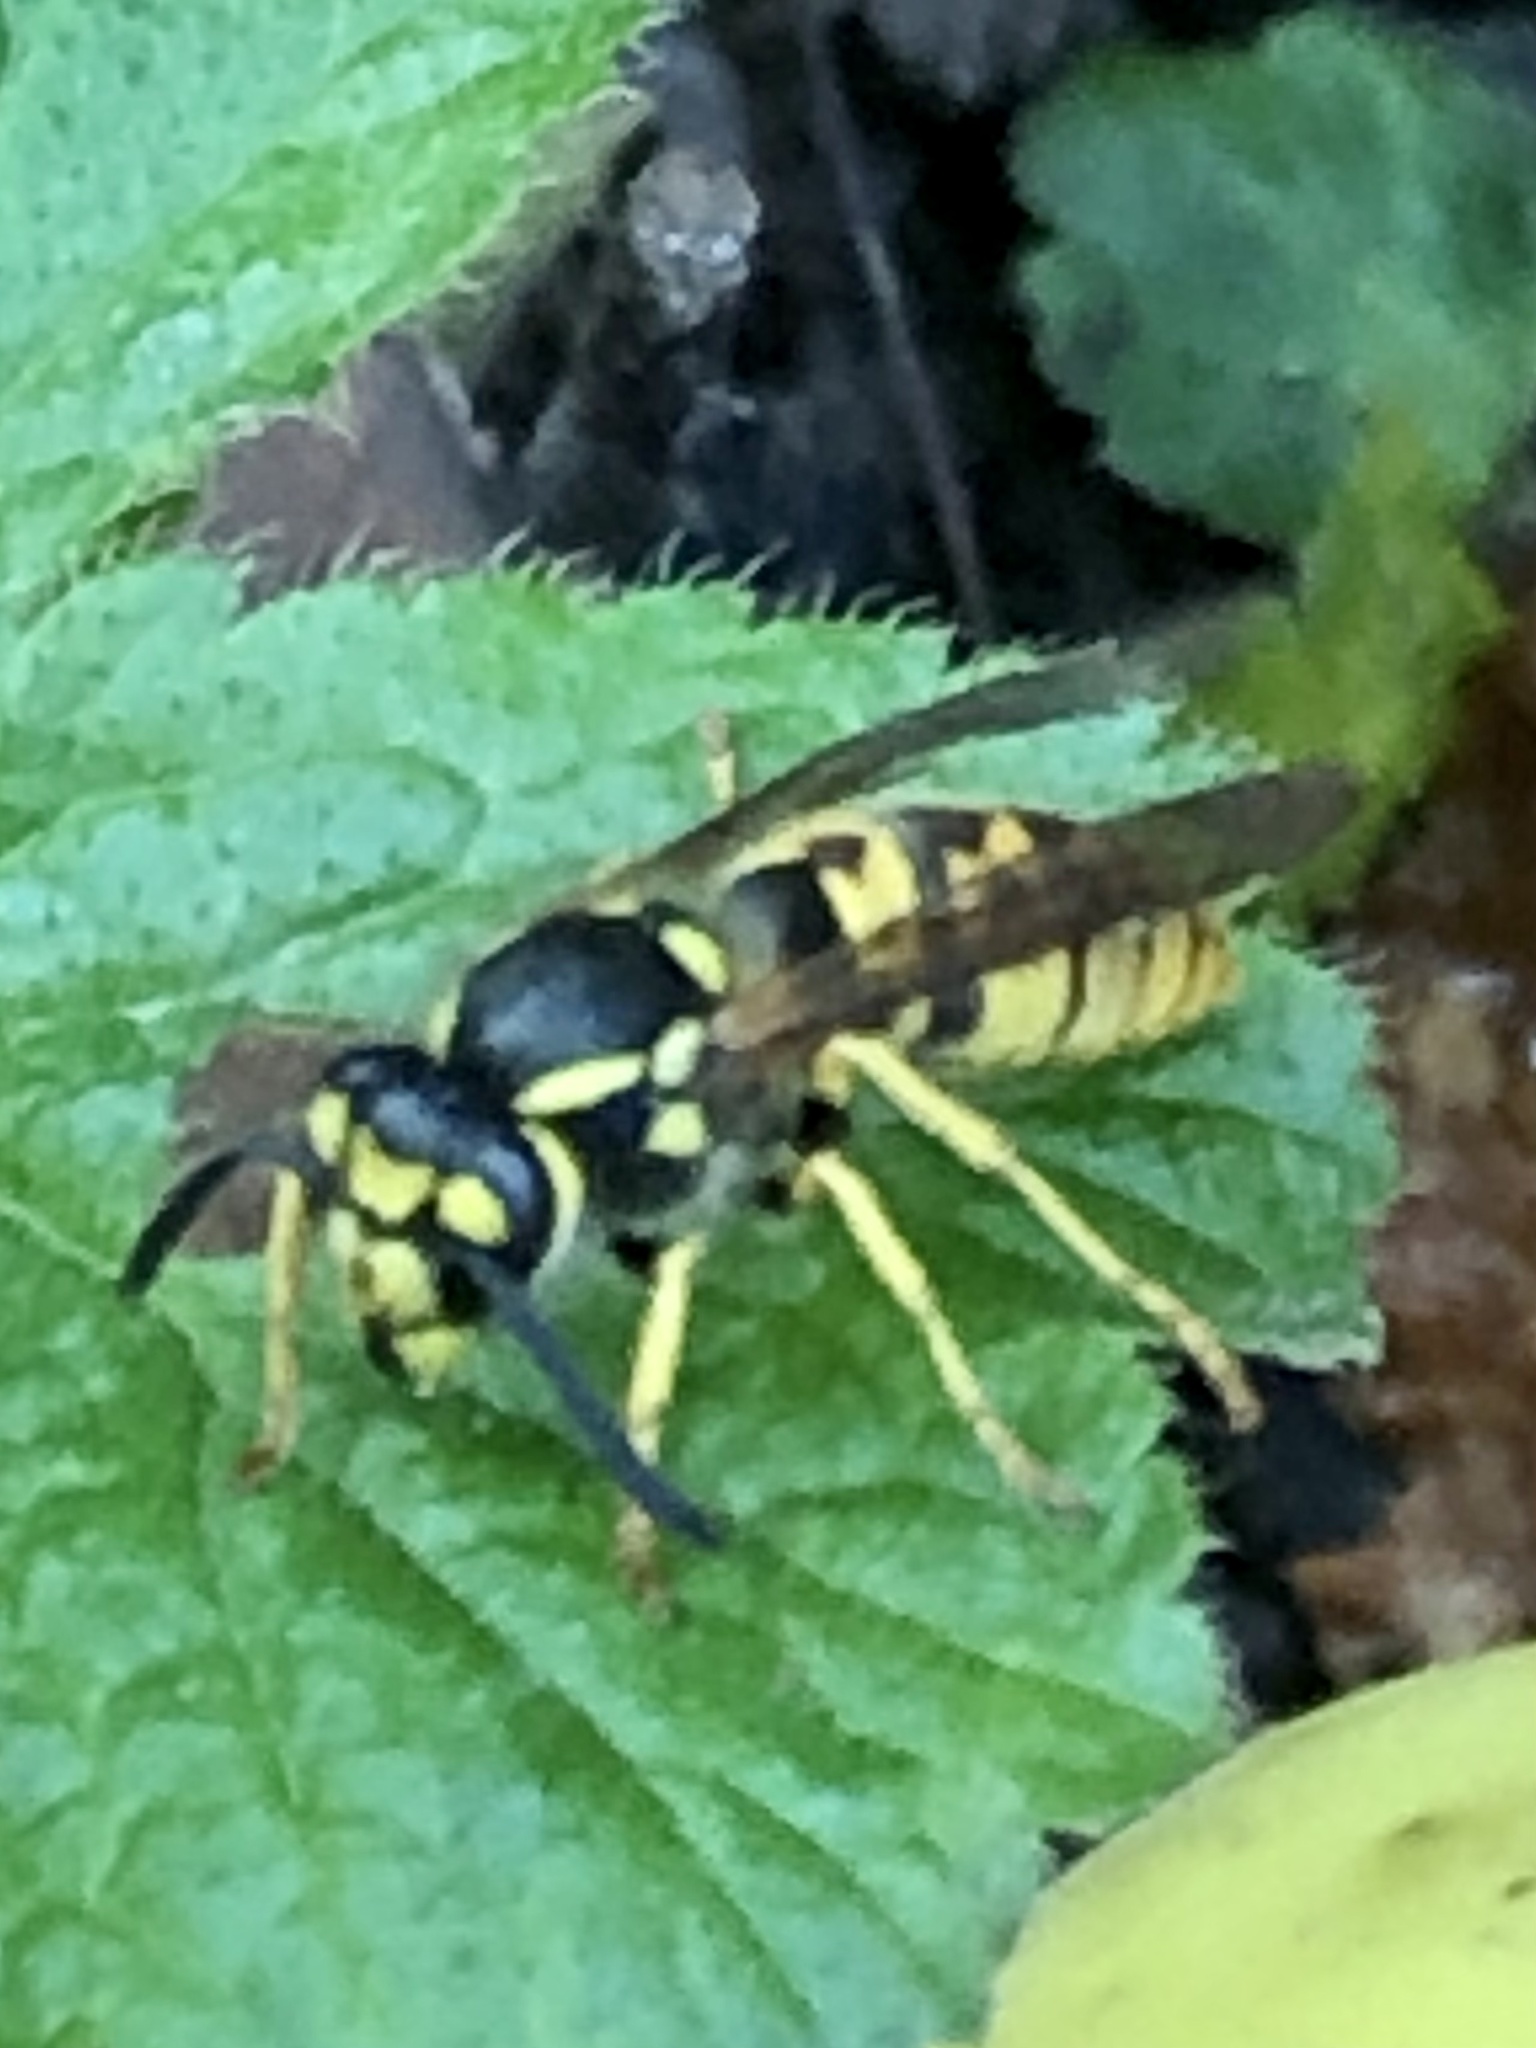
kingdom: Animalia
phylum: Arthropoda
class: Insecta
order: Hymenoptera
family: Vespidae
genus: Vespula
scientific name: Vespula germanica
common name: German wasp
